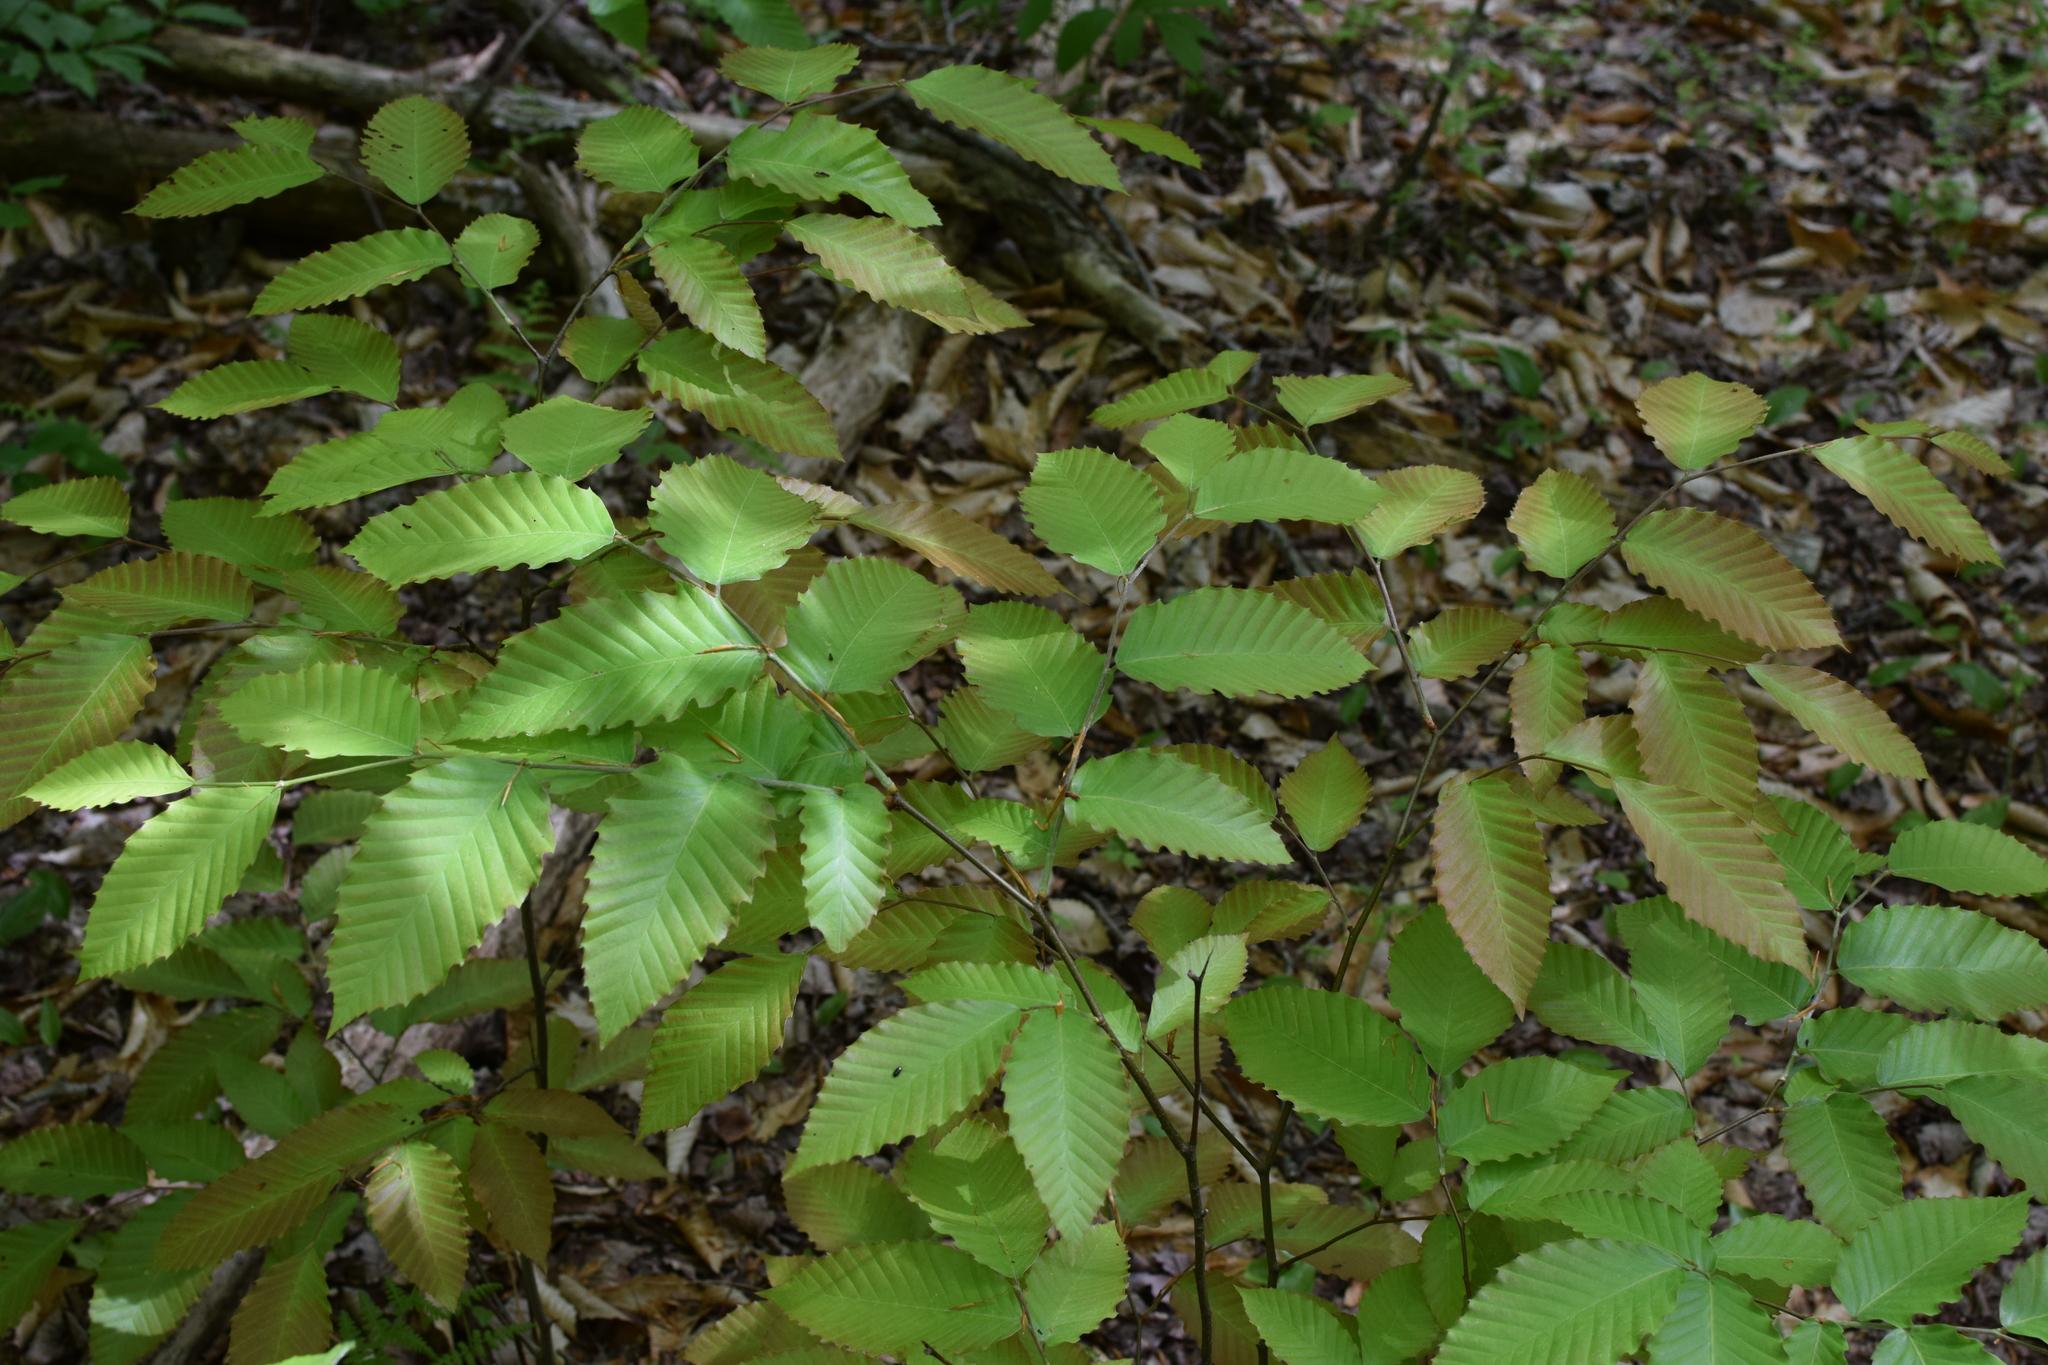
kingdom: Plantae
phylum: Tracheophyta
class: Magnoliopsida
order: Fagales
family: Fagaceae
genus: Fagus
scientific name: Fagus grandifolia
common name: American beech
